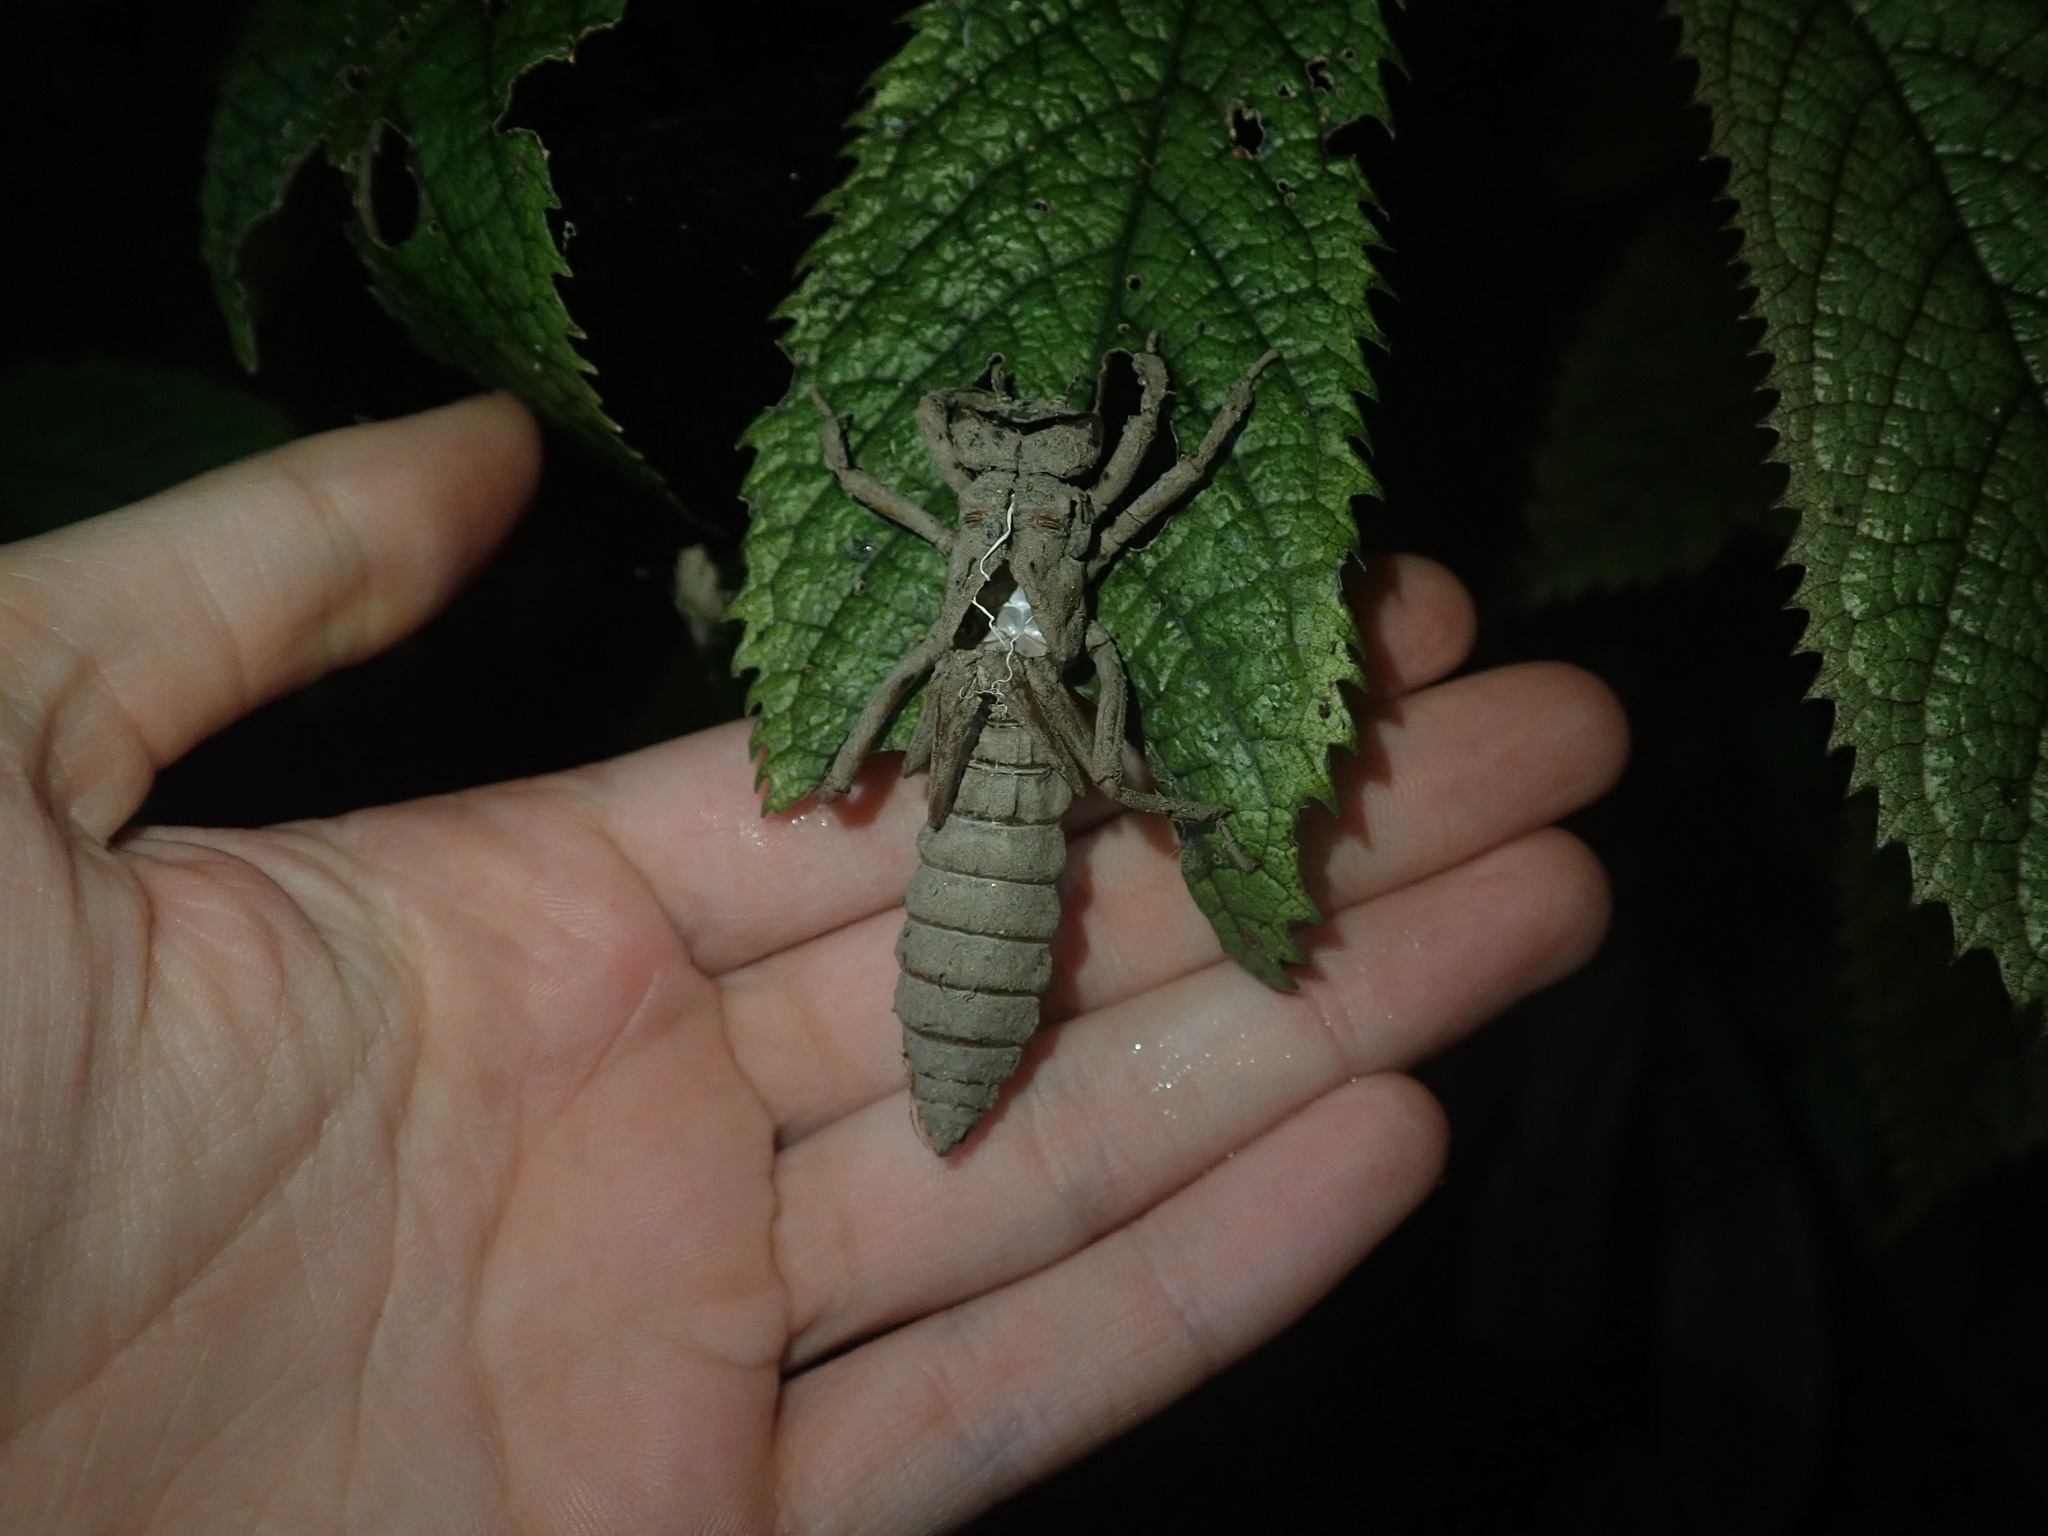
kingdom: Animalia
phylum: Arthropoda
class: Insecta
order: Odonata
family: Petaluridae
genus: Uropetala
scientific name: Uropetala carovei
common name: Bush giant dragonfly
